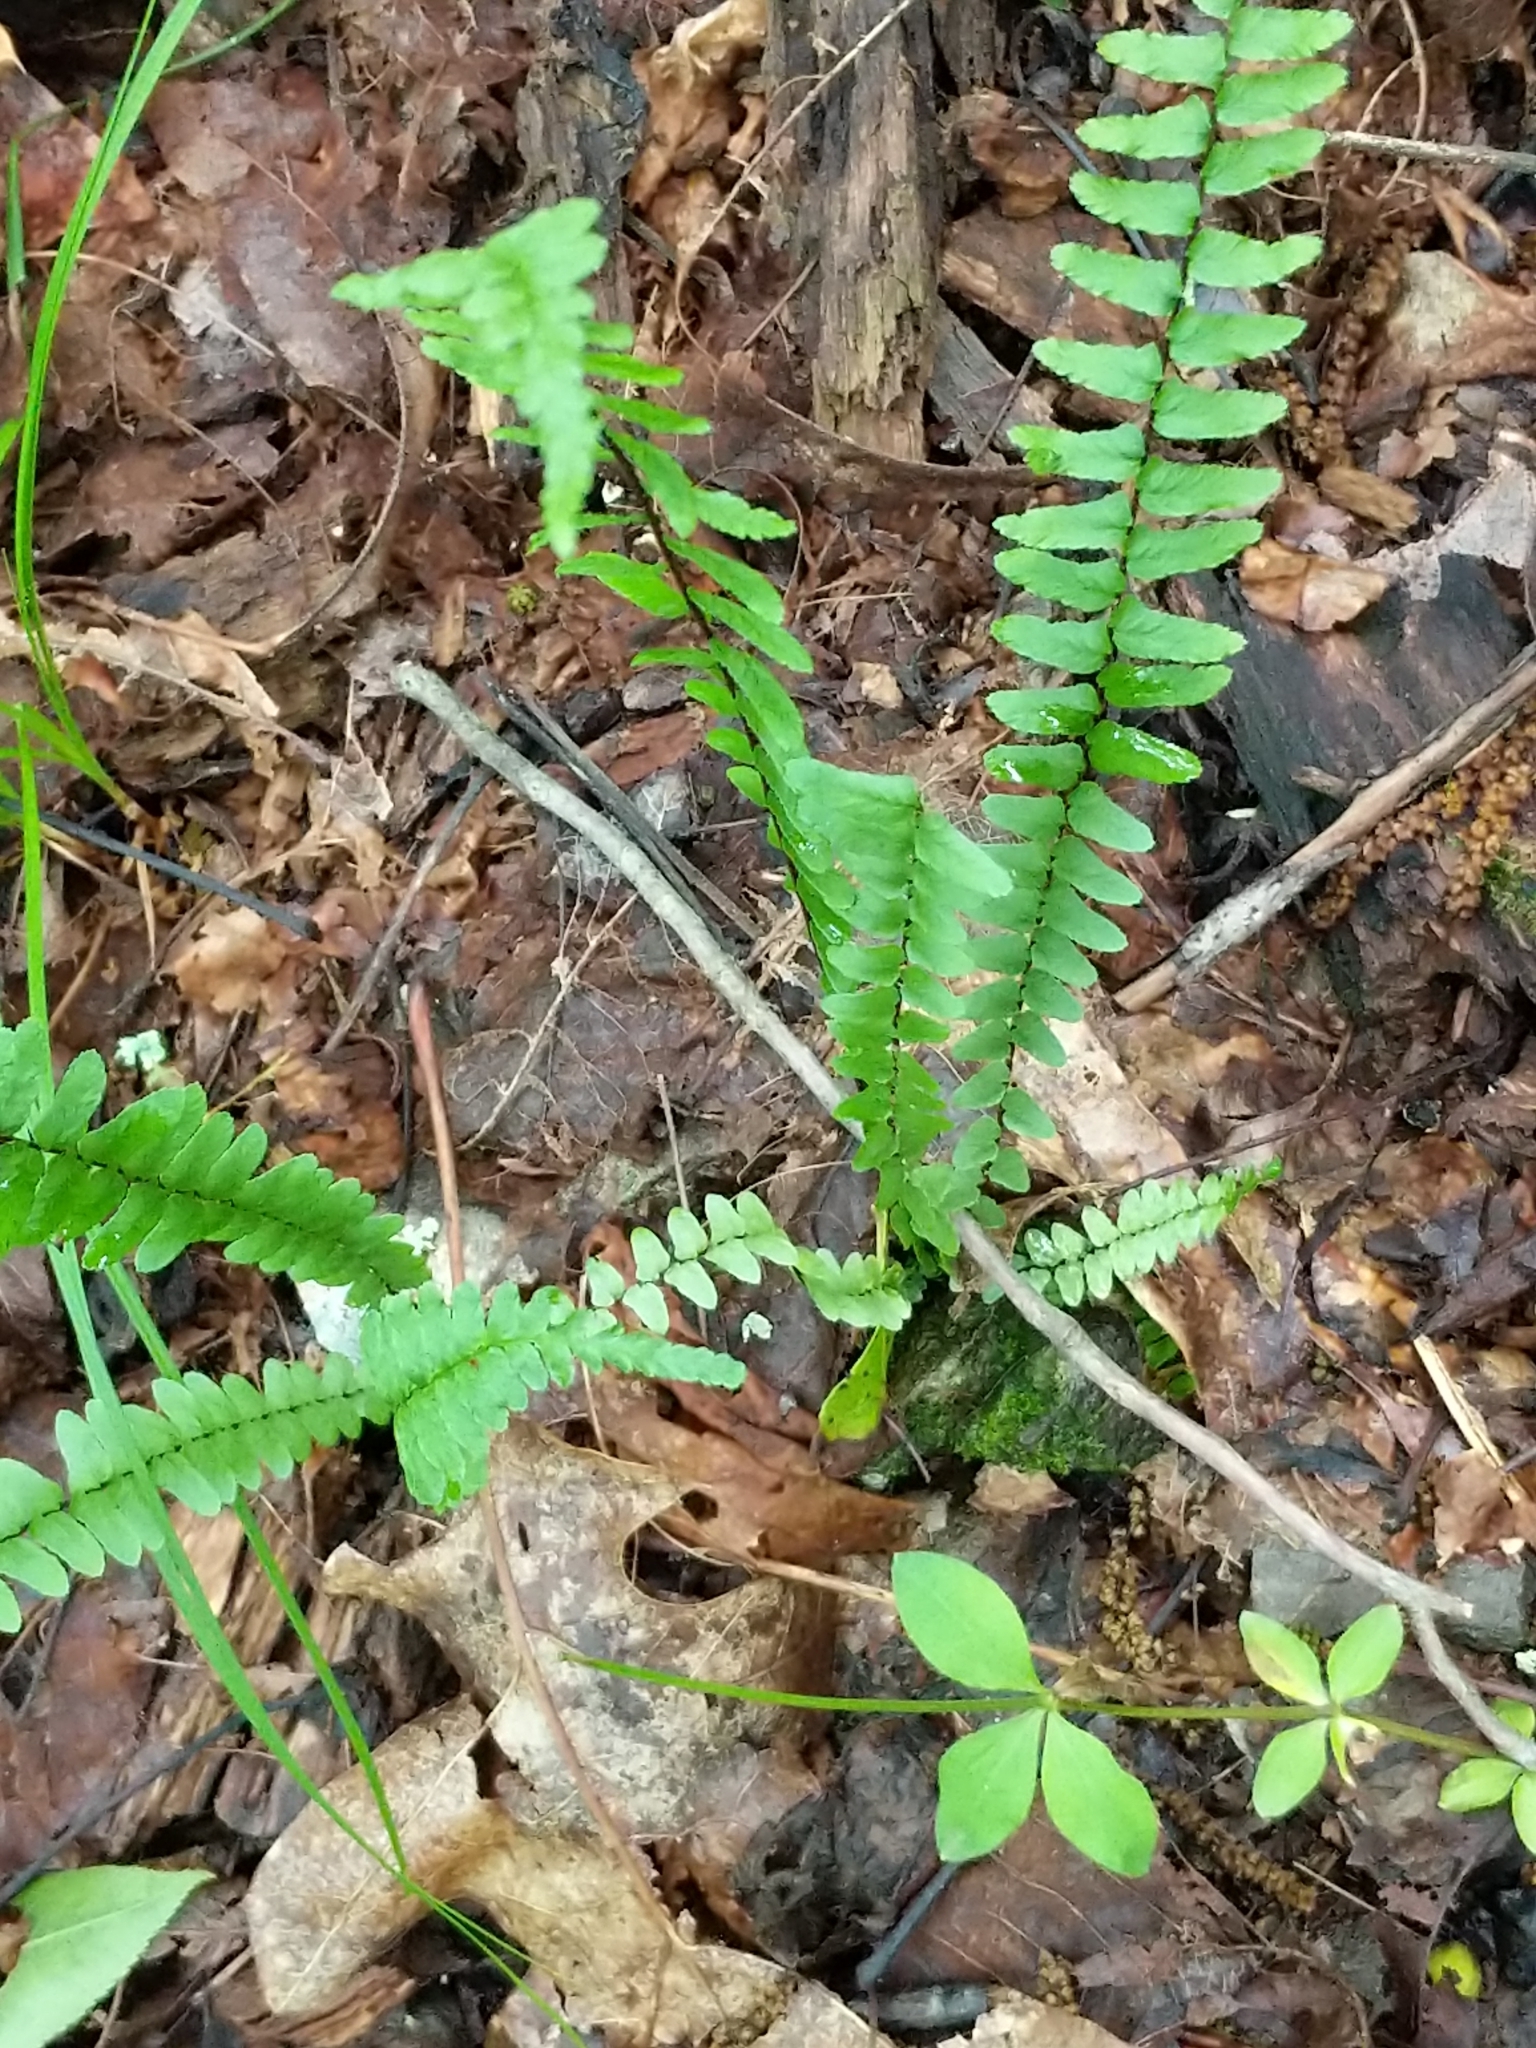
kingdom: Plantae
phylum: Tracheophyta
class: Polypodiopsida
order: Polypodiales
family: Aspleniaceae
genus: Asplenium
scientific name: Asplenium platyneuron
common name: Ebony spleenwort
